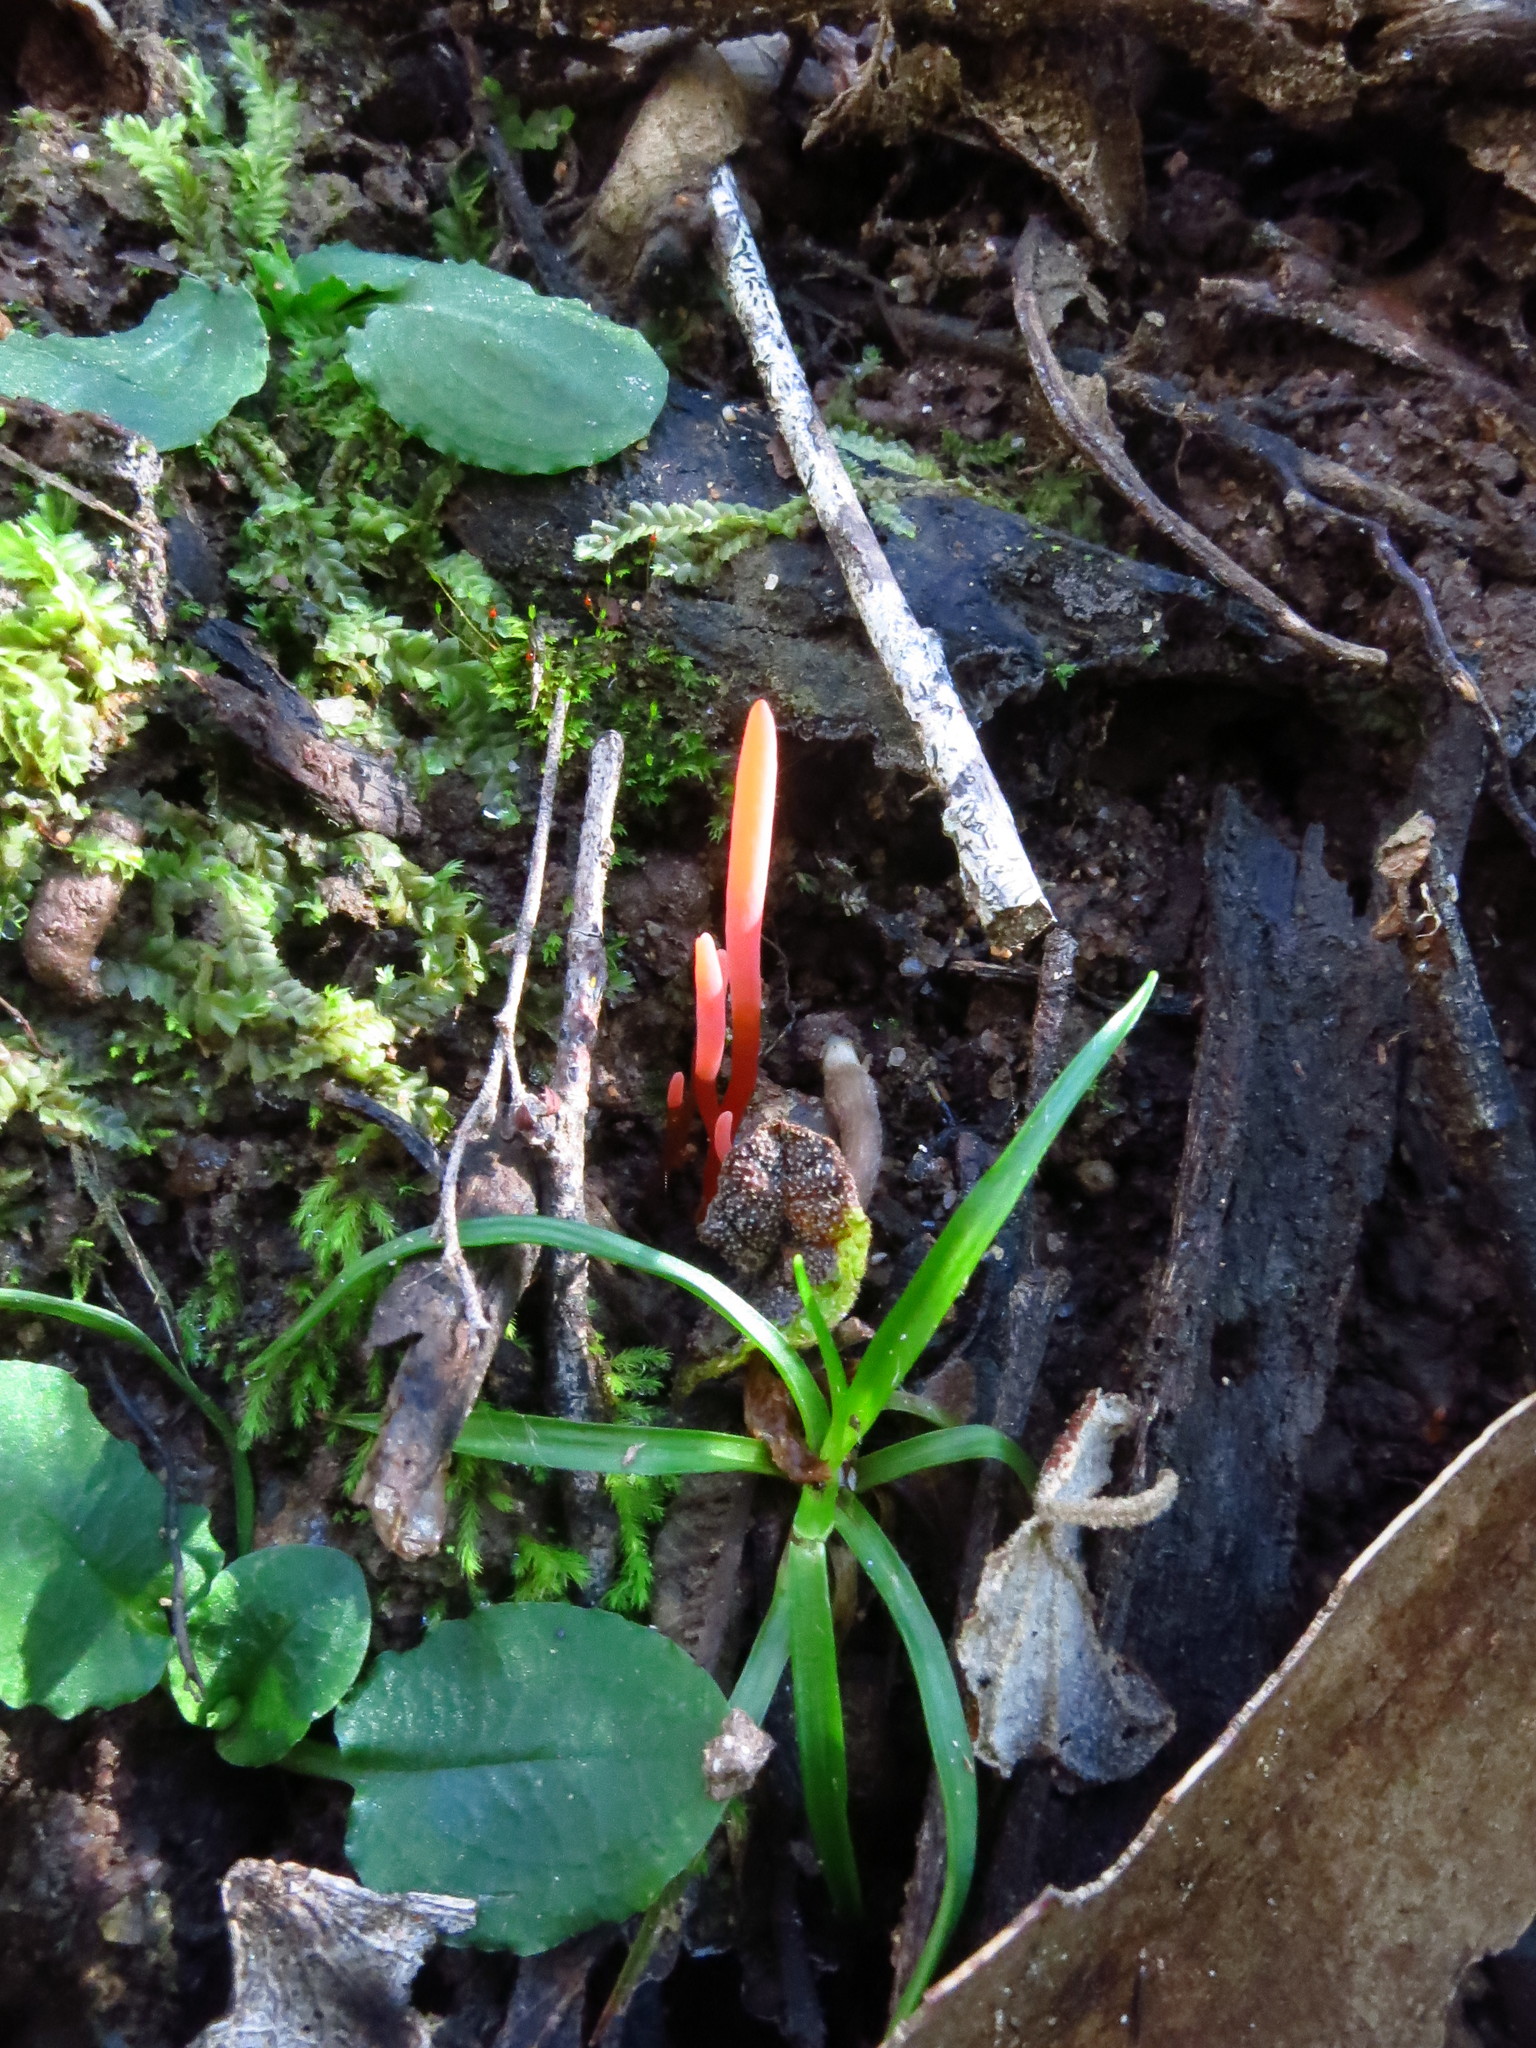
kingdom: Fungi
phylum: Basidiomycota
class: Agaricomycetes
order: Agaricales
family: Clavariaceae
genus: Clavulinopsis
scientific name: Clavulinopsis corallinorosacea
